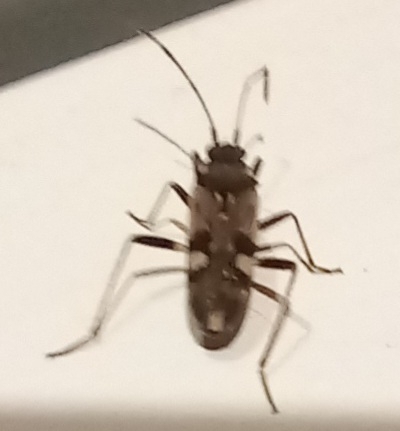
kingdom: Animalia
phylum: Arthropoda
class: Insecta
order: Hemiptera
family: Rhyparochromidae
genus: Beosus
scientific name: Beosus maritimus
